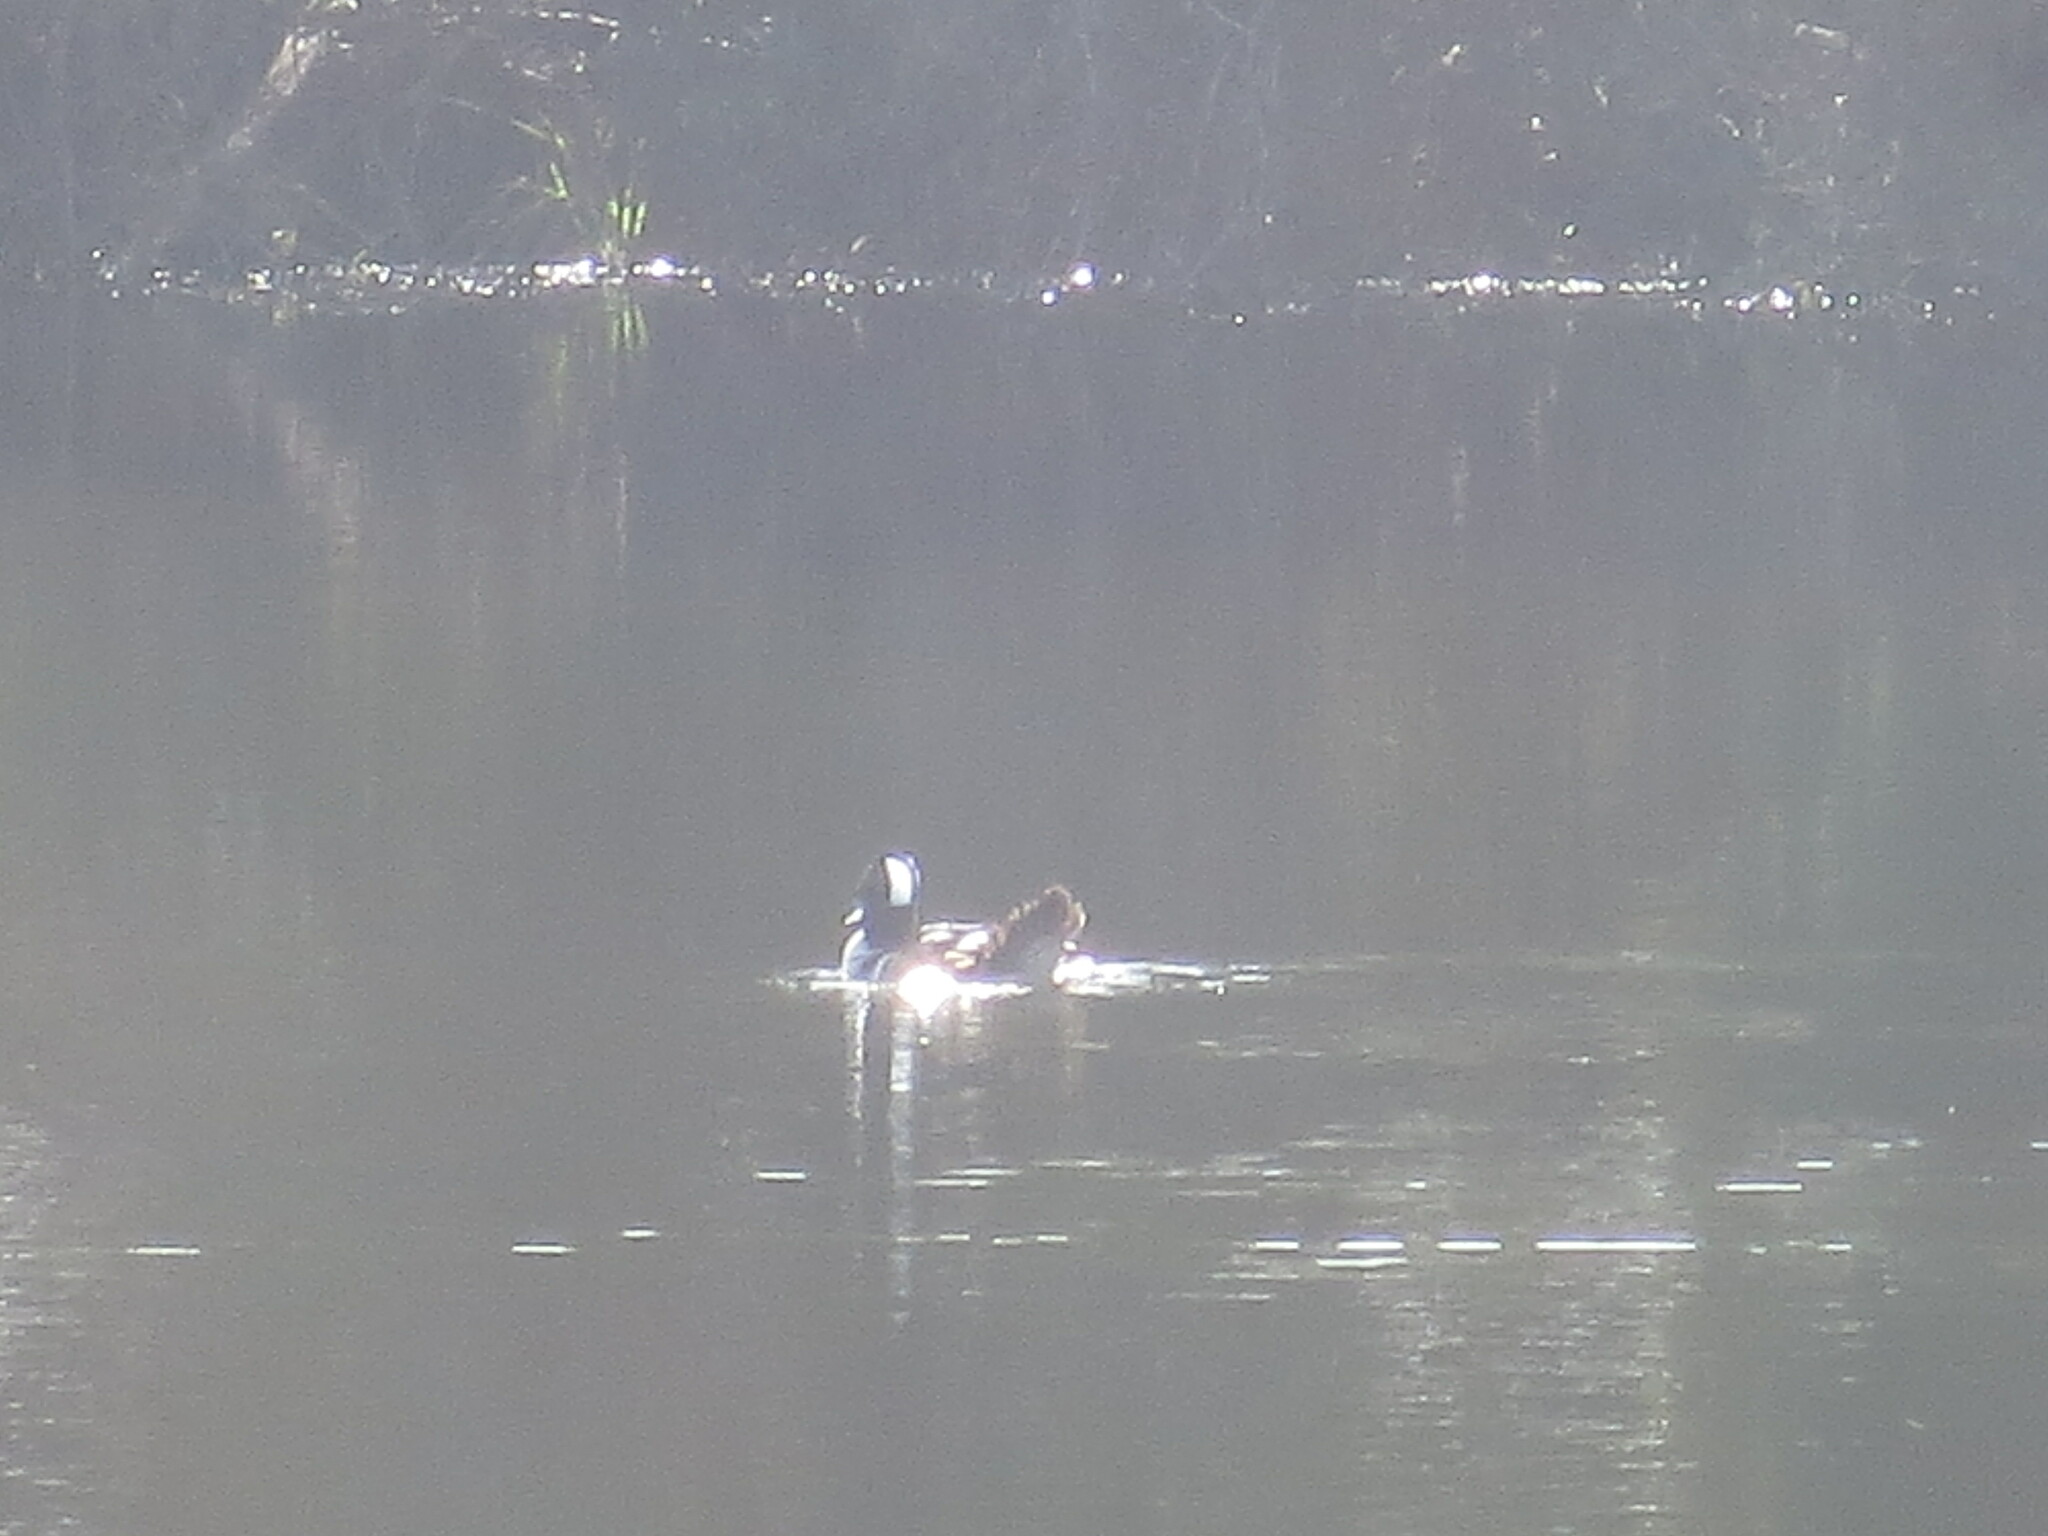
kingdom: Animalia
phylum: Chordata
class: Aves
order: Anseriformes
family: Anatidae
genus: Lophodytes
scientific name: Lophodytes cucullatus
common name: Hooded merganser
